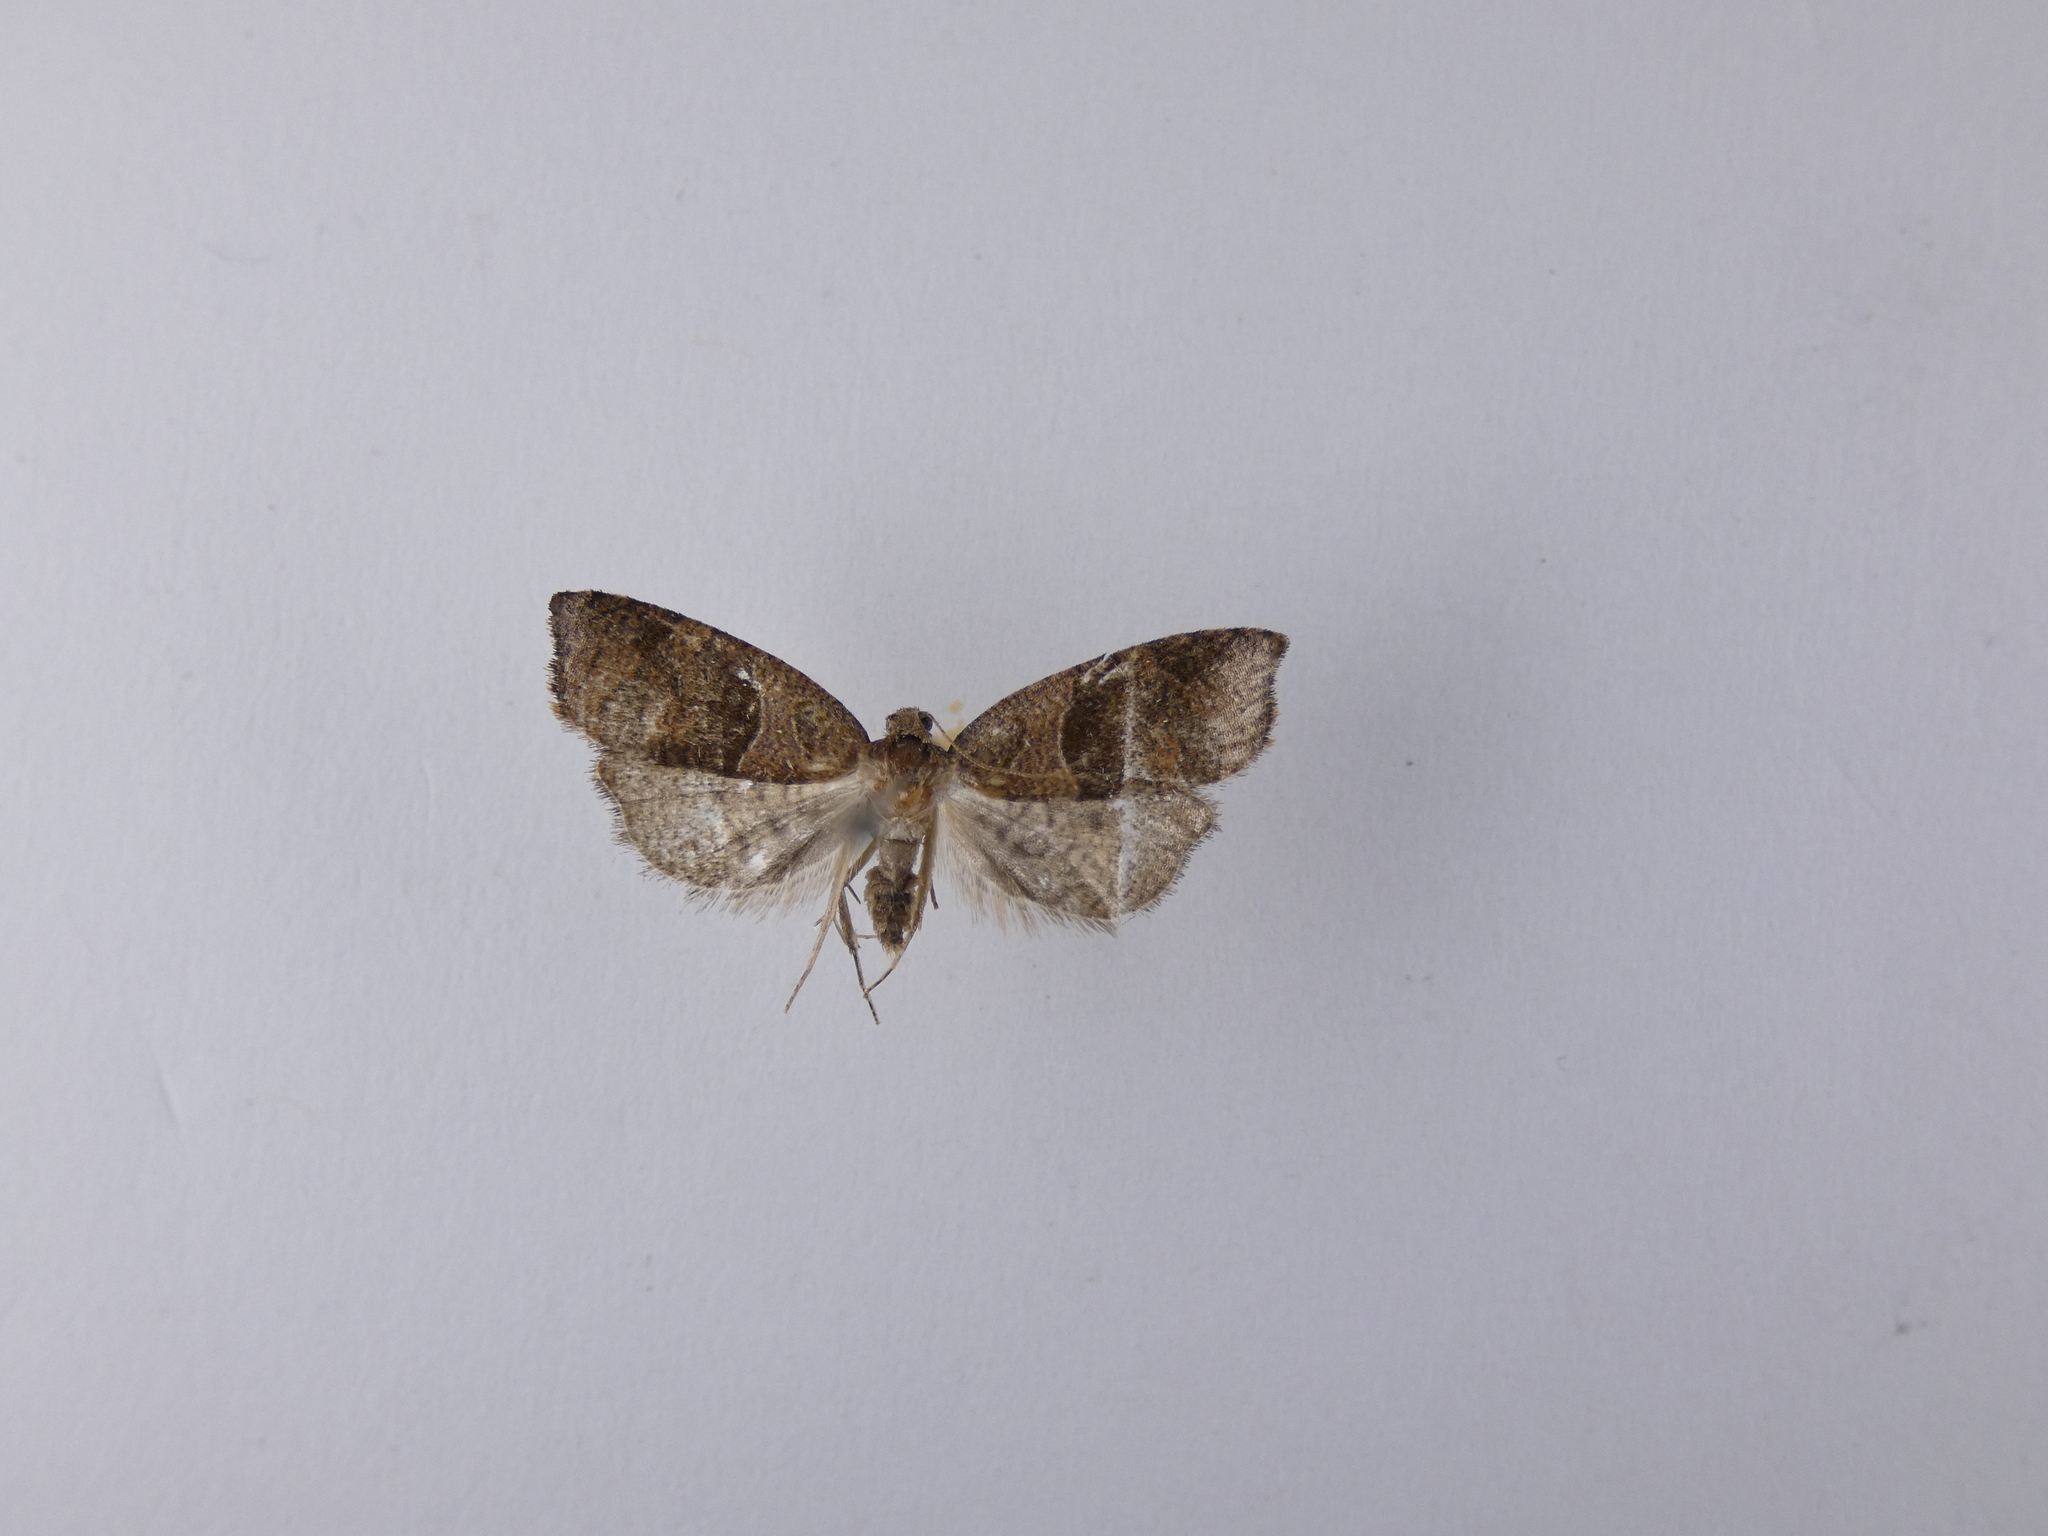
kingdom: Animalia
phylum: Arthropoda
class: Insecta
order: Lepidoptera
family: Tortricidae
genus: Cnephasia
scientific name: Cnephasia incertana
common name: Light grey tortrix
